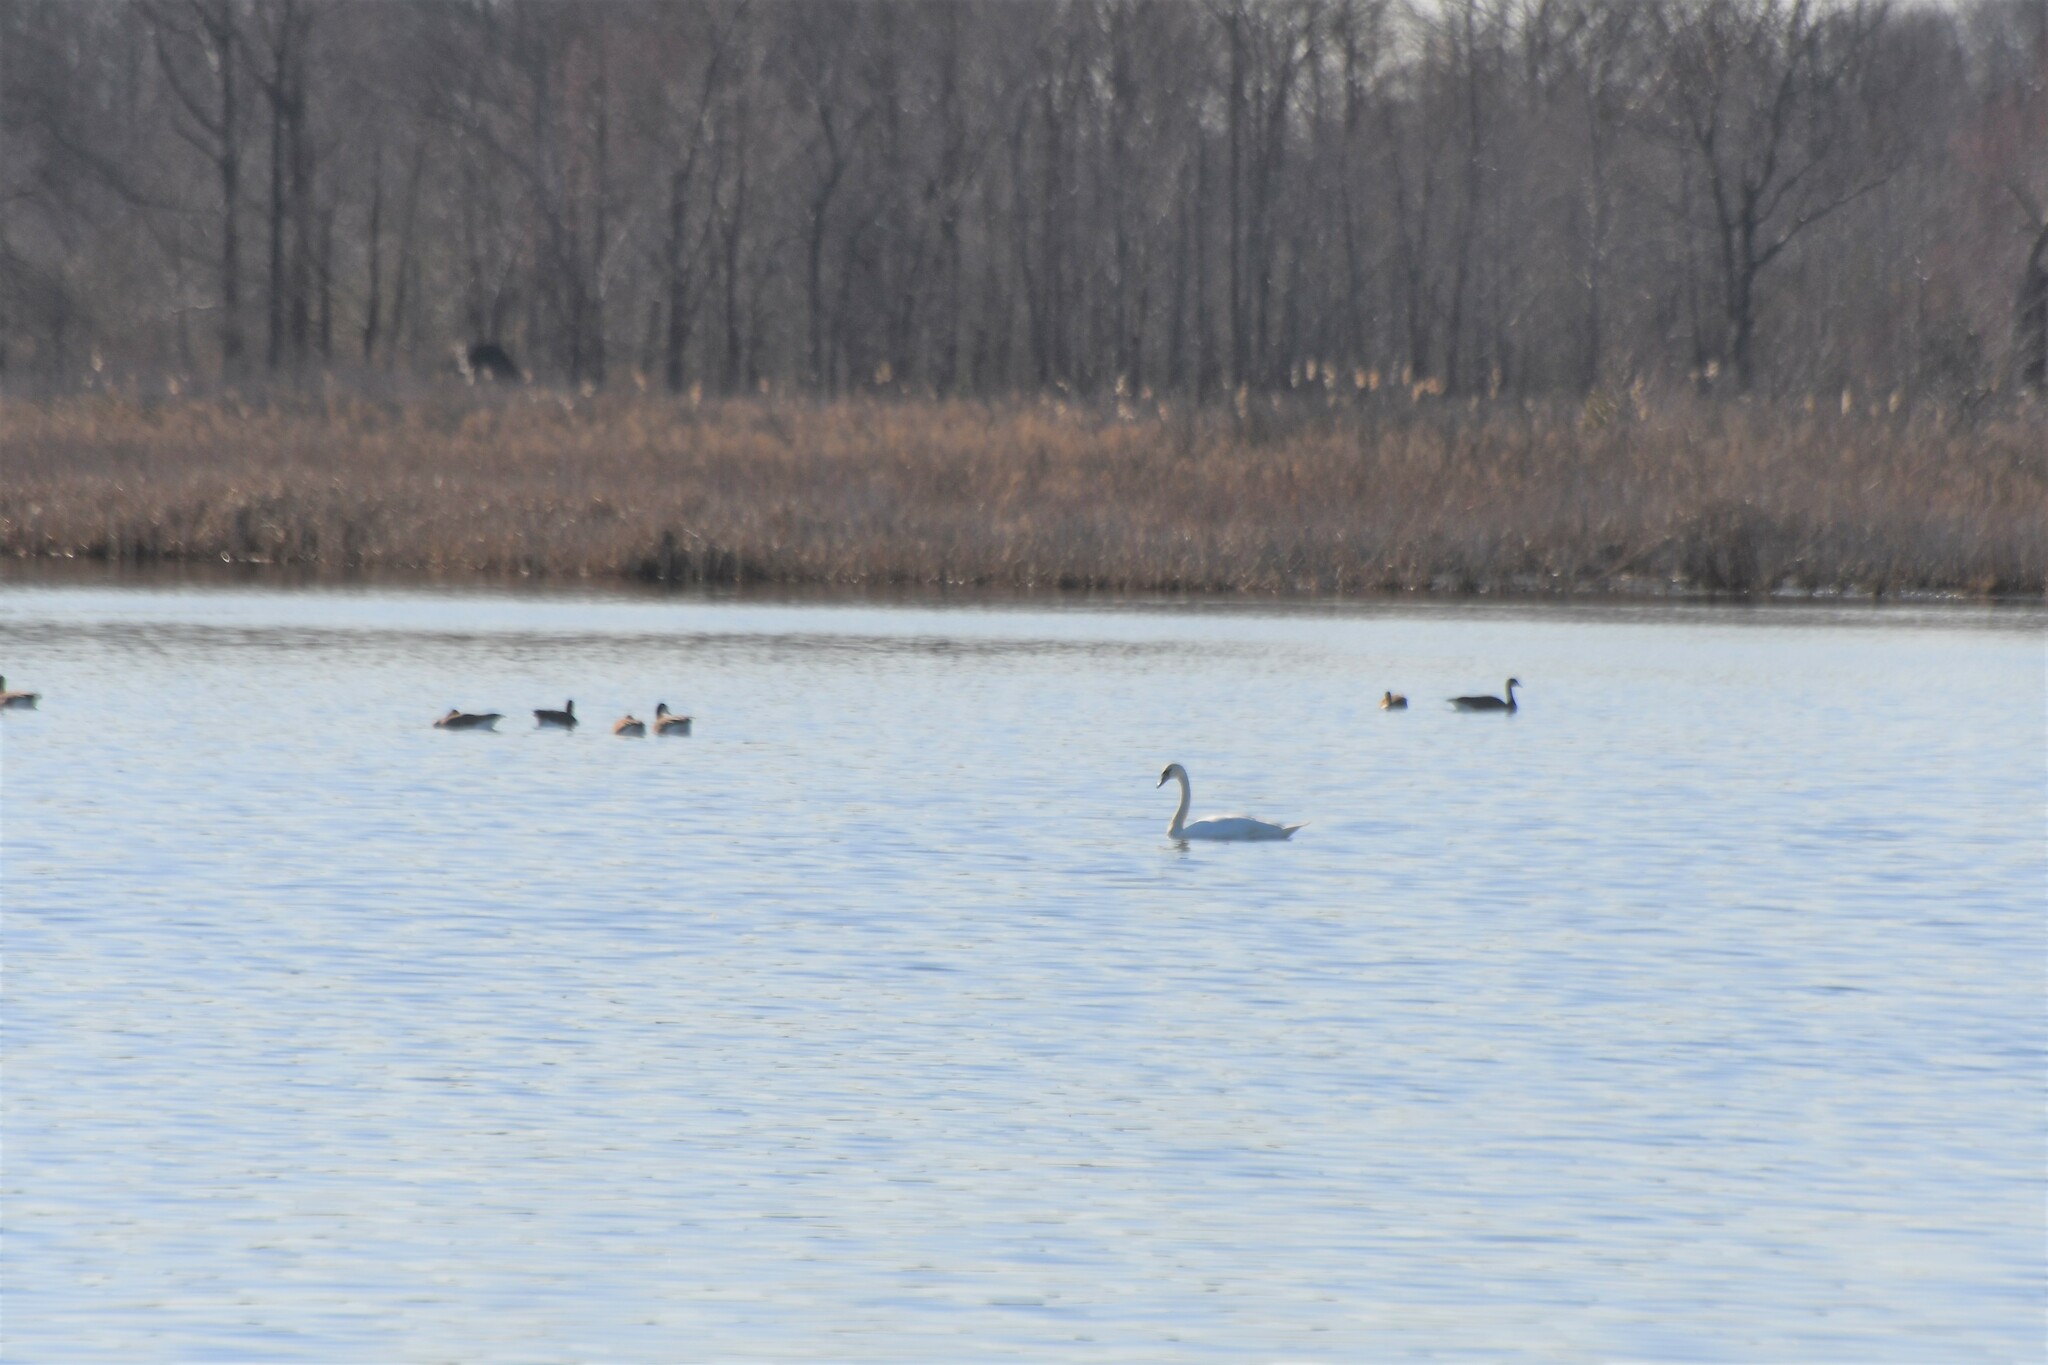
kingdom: Animalia
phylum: Chordata
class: Aves
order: Anseriformes
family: Anatidae
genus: Cygnus
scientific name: Cygnus olor
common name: Mute swan
